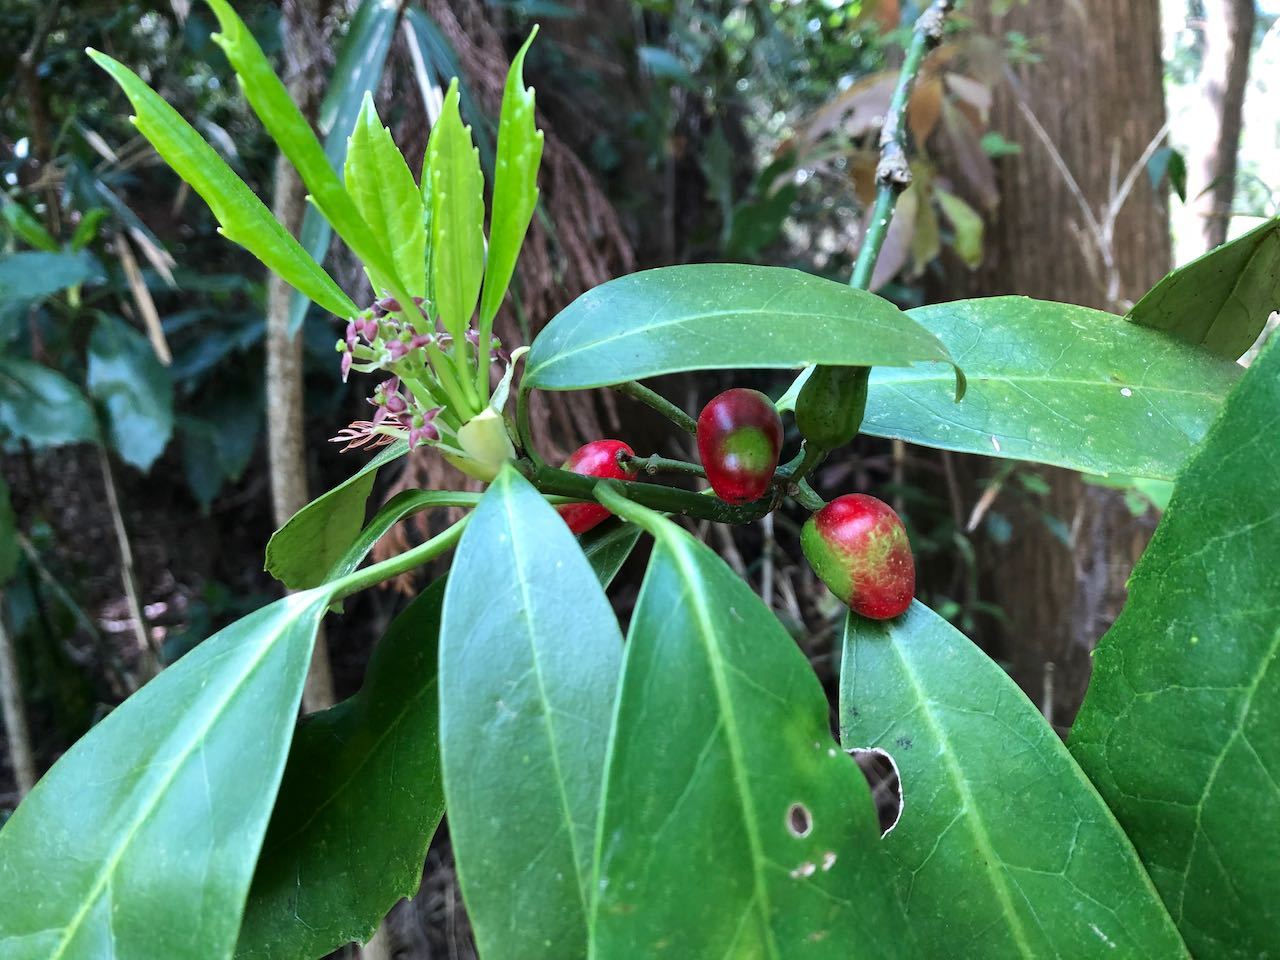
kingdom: Plantae
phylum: Tracheophyta
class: Magnoliopsida
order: Garryales
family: Garryaceae
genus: Aucuba
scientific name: Aucuba japonica
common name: Spotted-laurel
